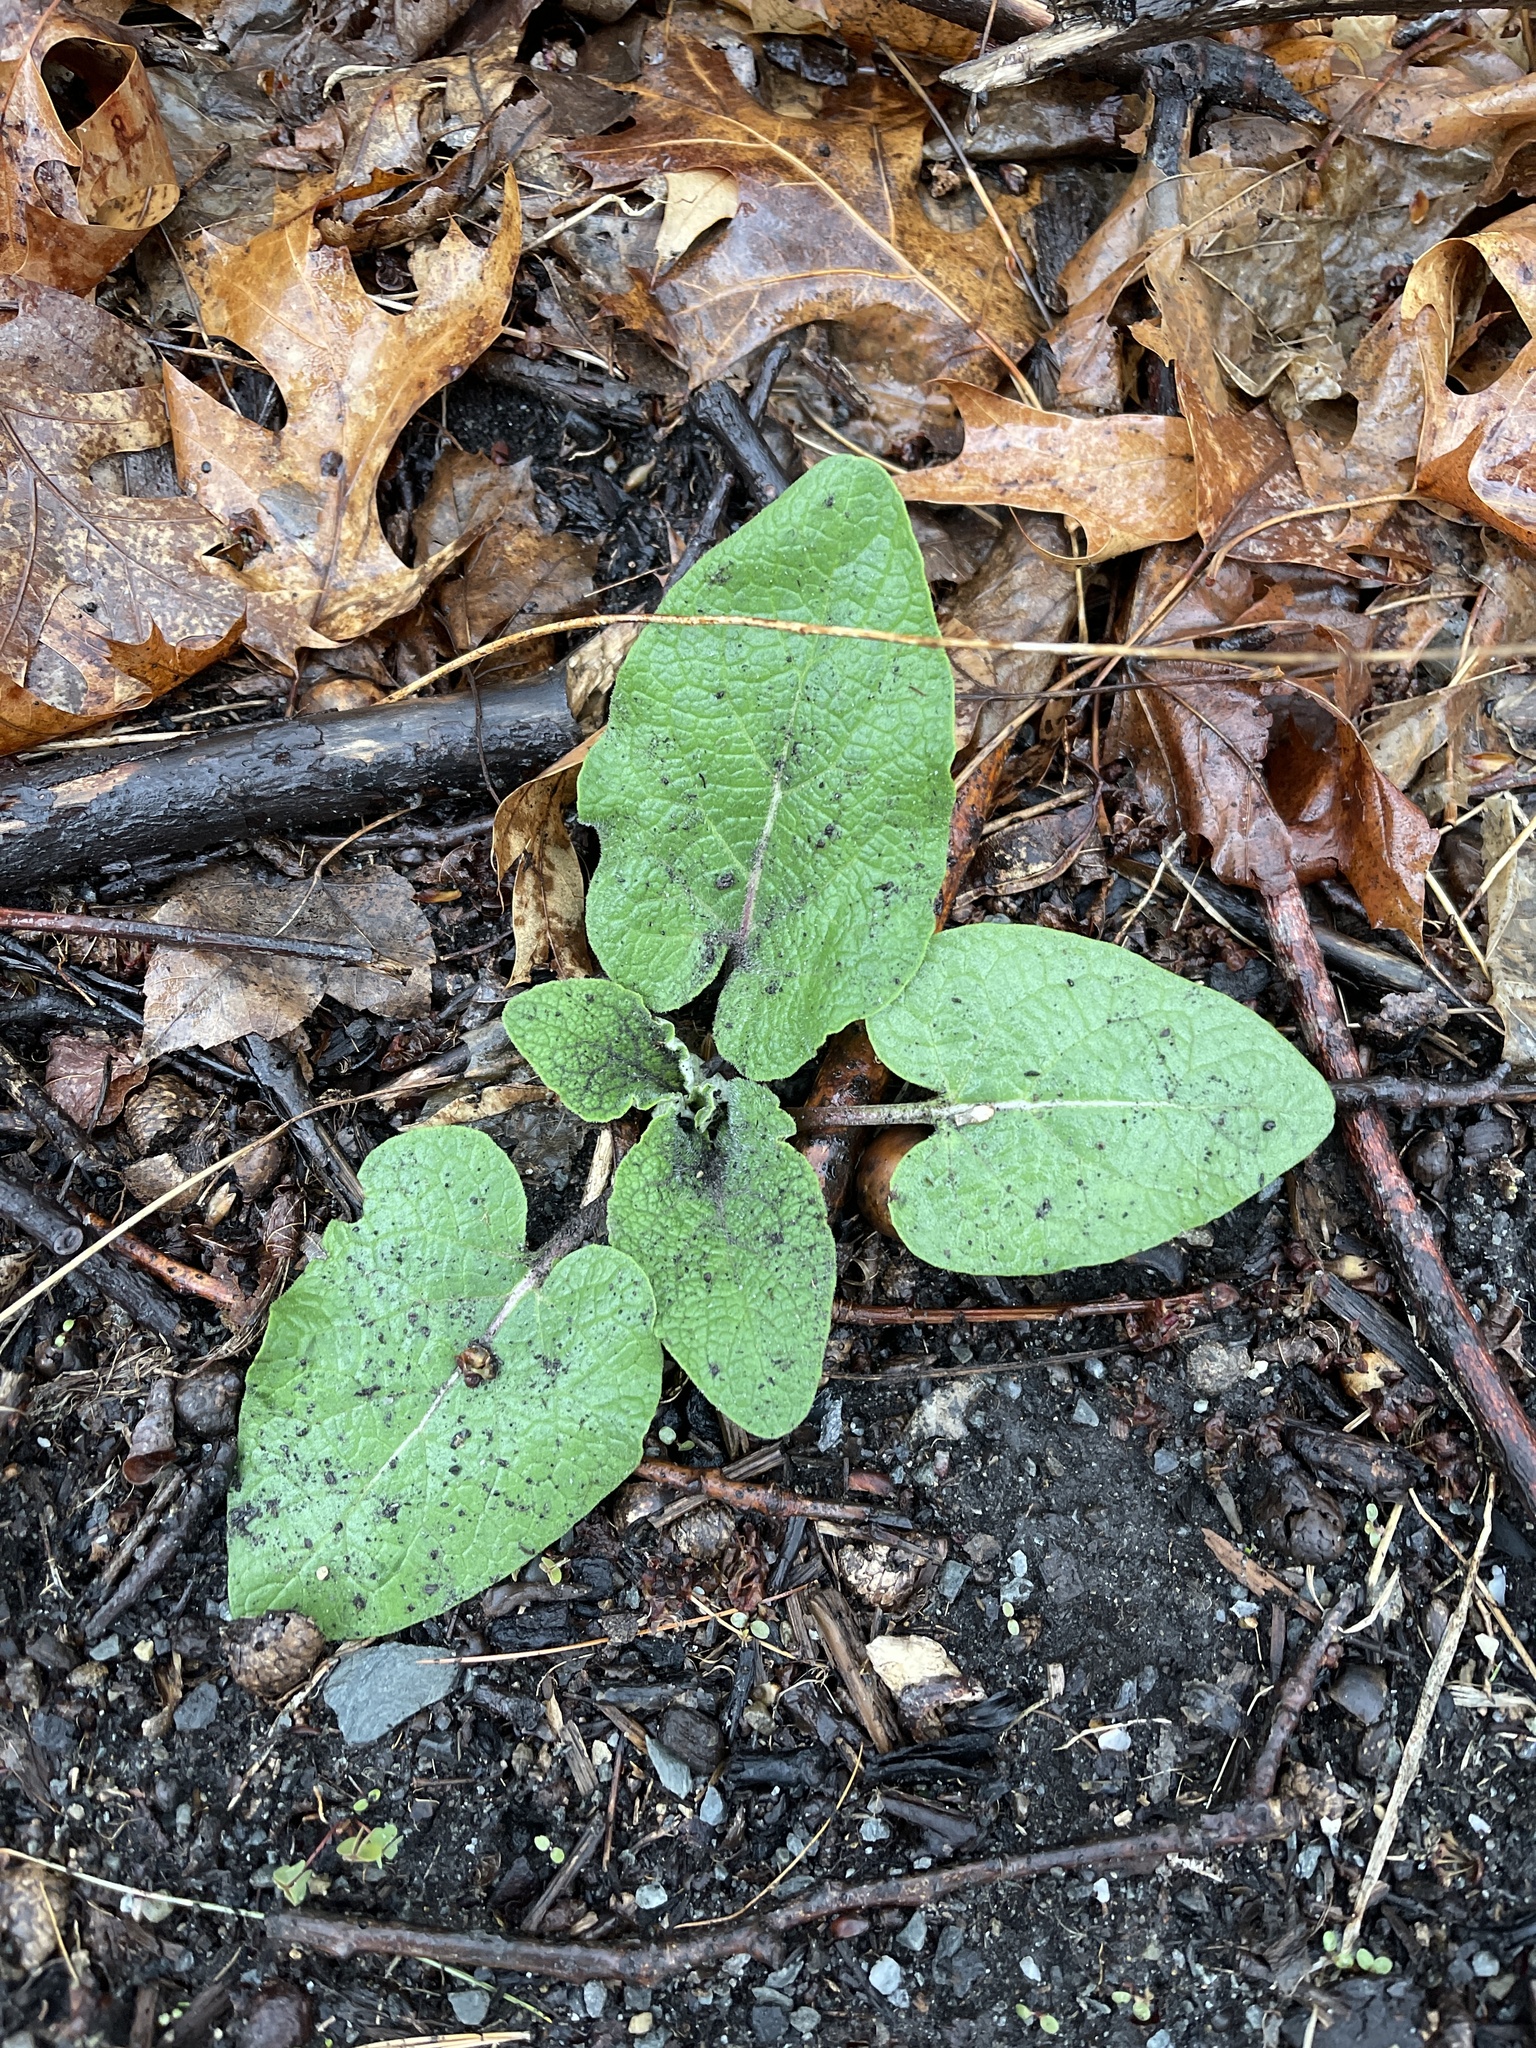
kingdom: Plantae
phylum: Tracheophyta
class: Magnoliopsida
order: Asterales
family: Asteraceae
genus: Arctium
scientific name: Arctium
